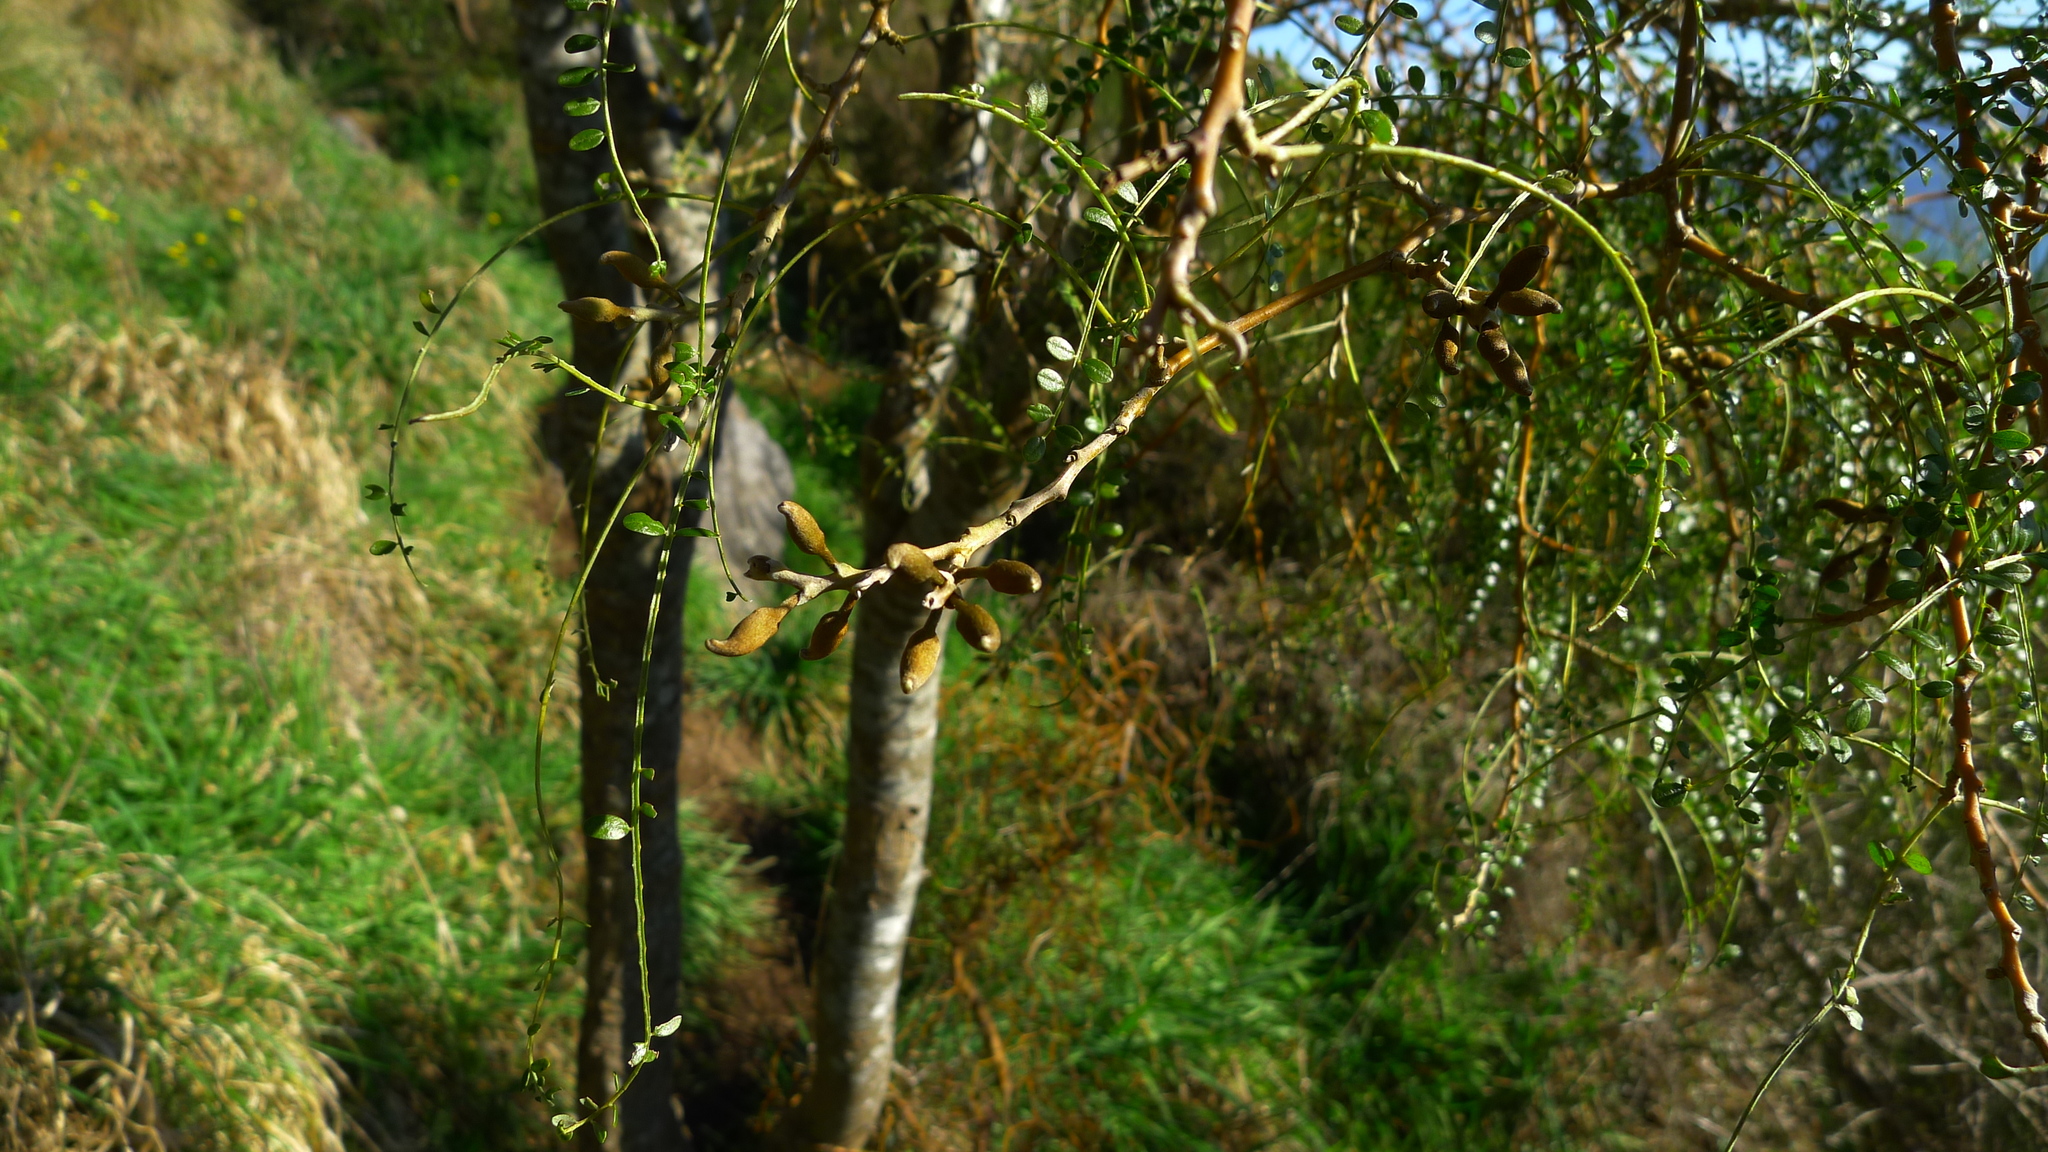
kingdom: Plantae
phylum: Tracheophyta
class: Magnoliopsida
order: Fabales
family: Fabaceae
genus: Sophora
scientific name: Sophora microphylla
